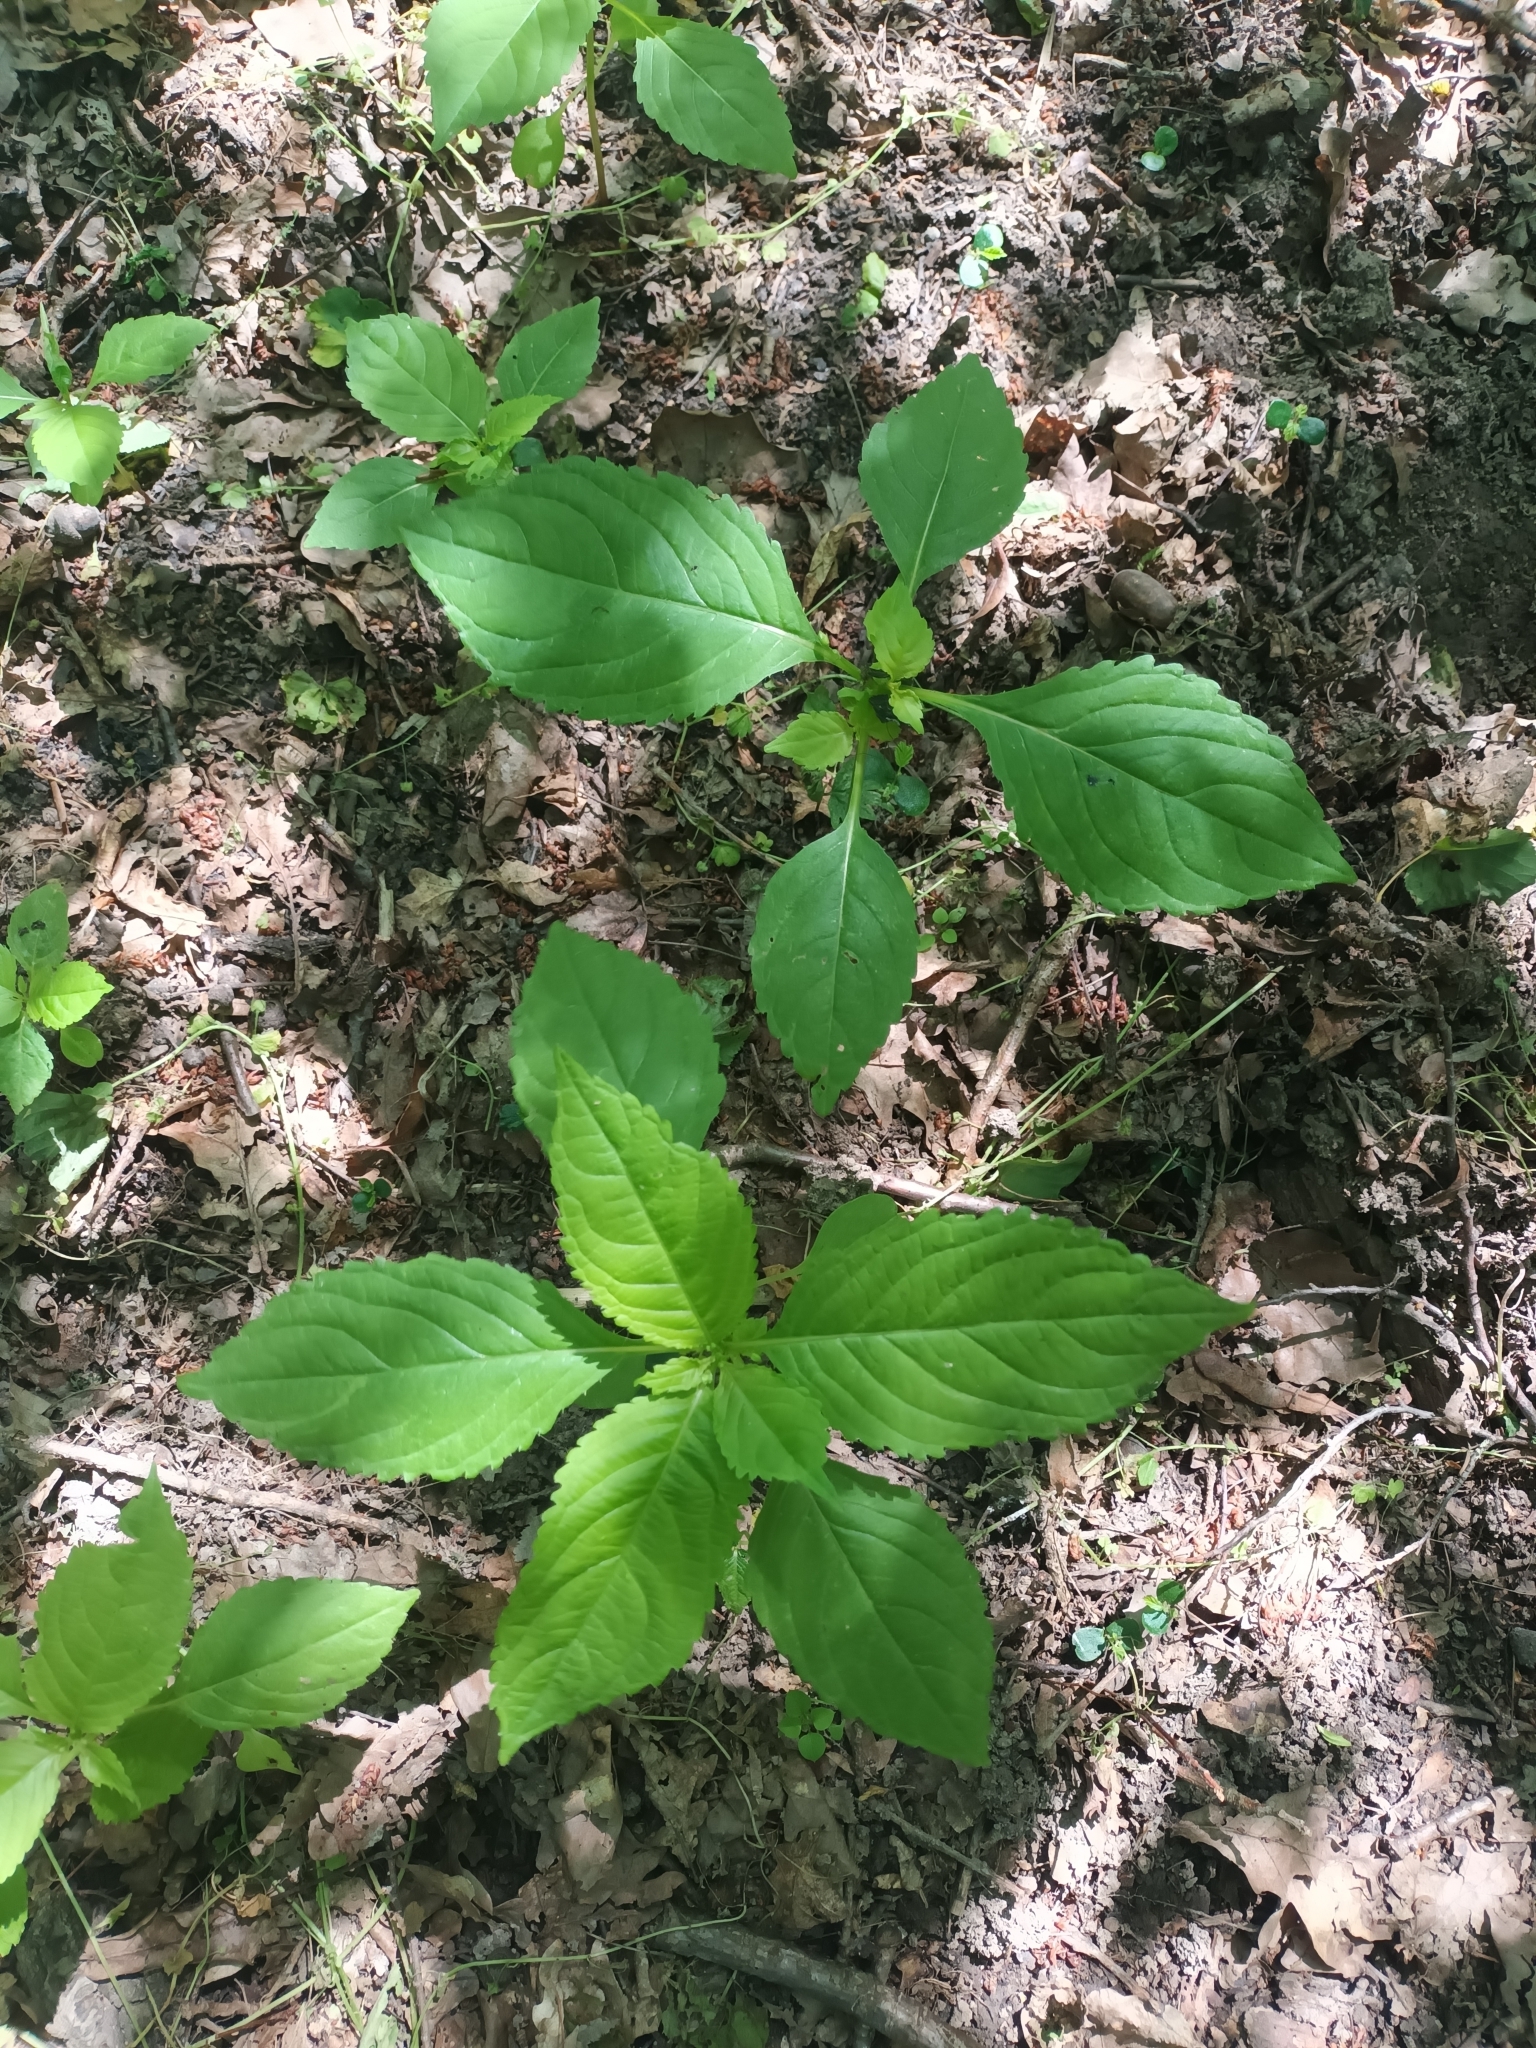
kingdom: Plantae
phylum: Tracheophyta
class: Magnoliopsida
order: Ericales
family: Balsaminaceae
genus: Impatiens
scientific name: Impatiens parviflora
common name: Small balsam
